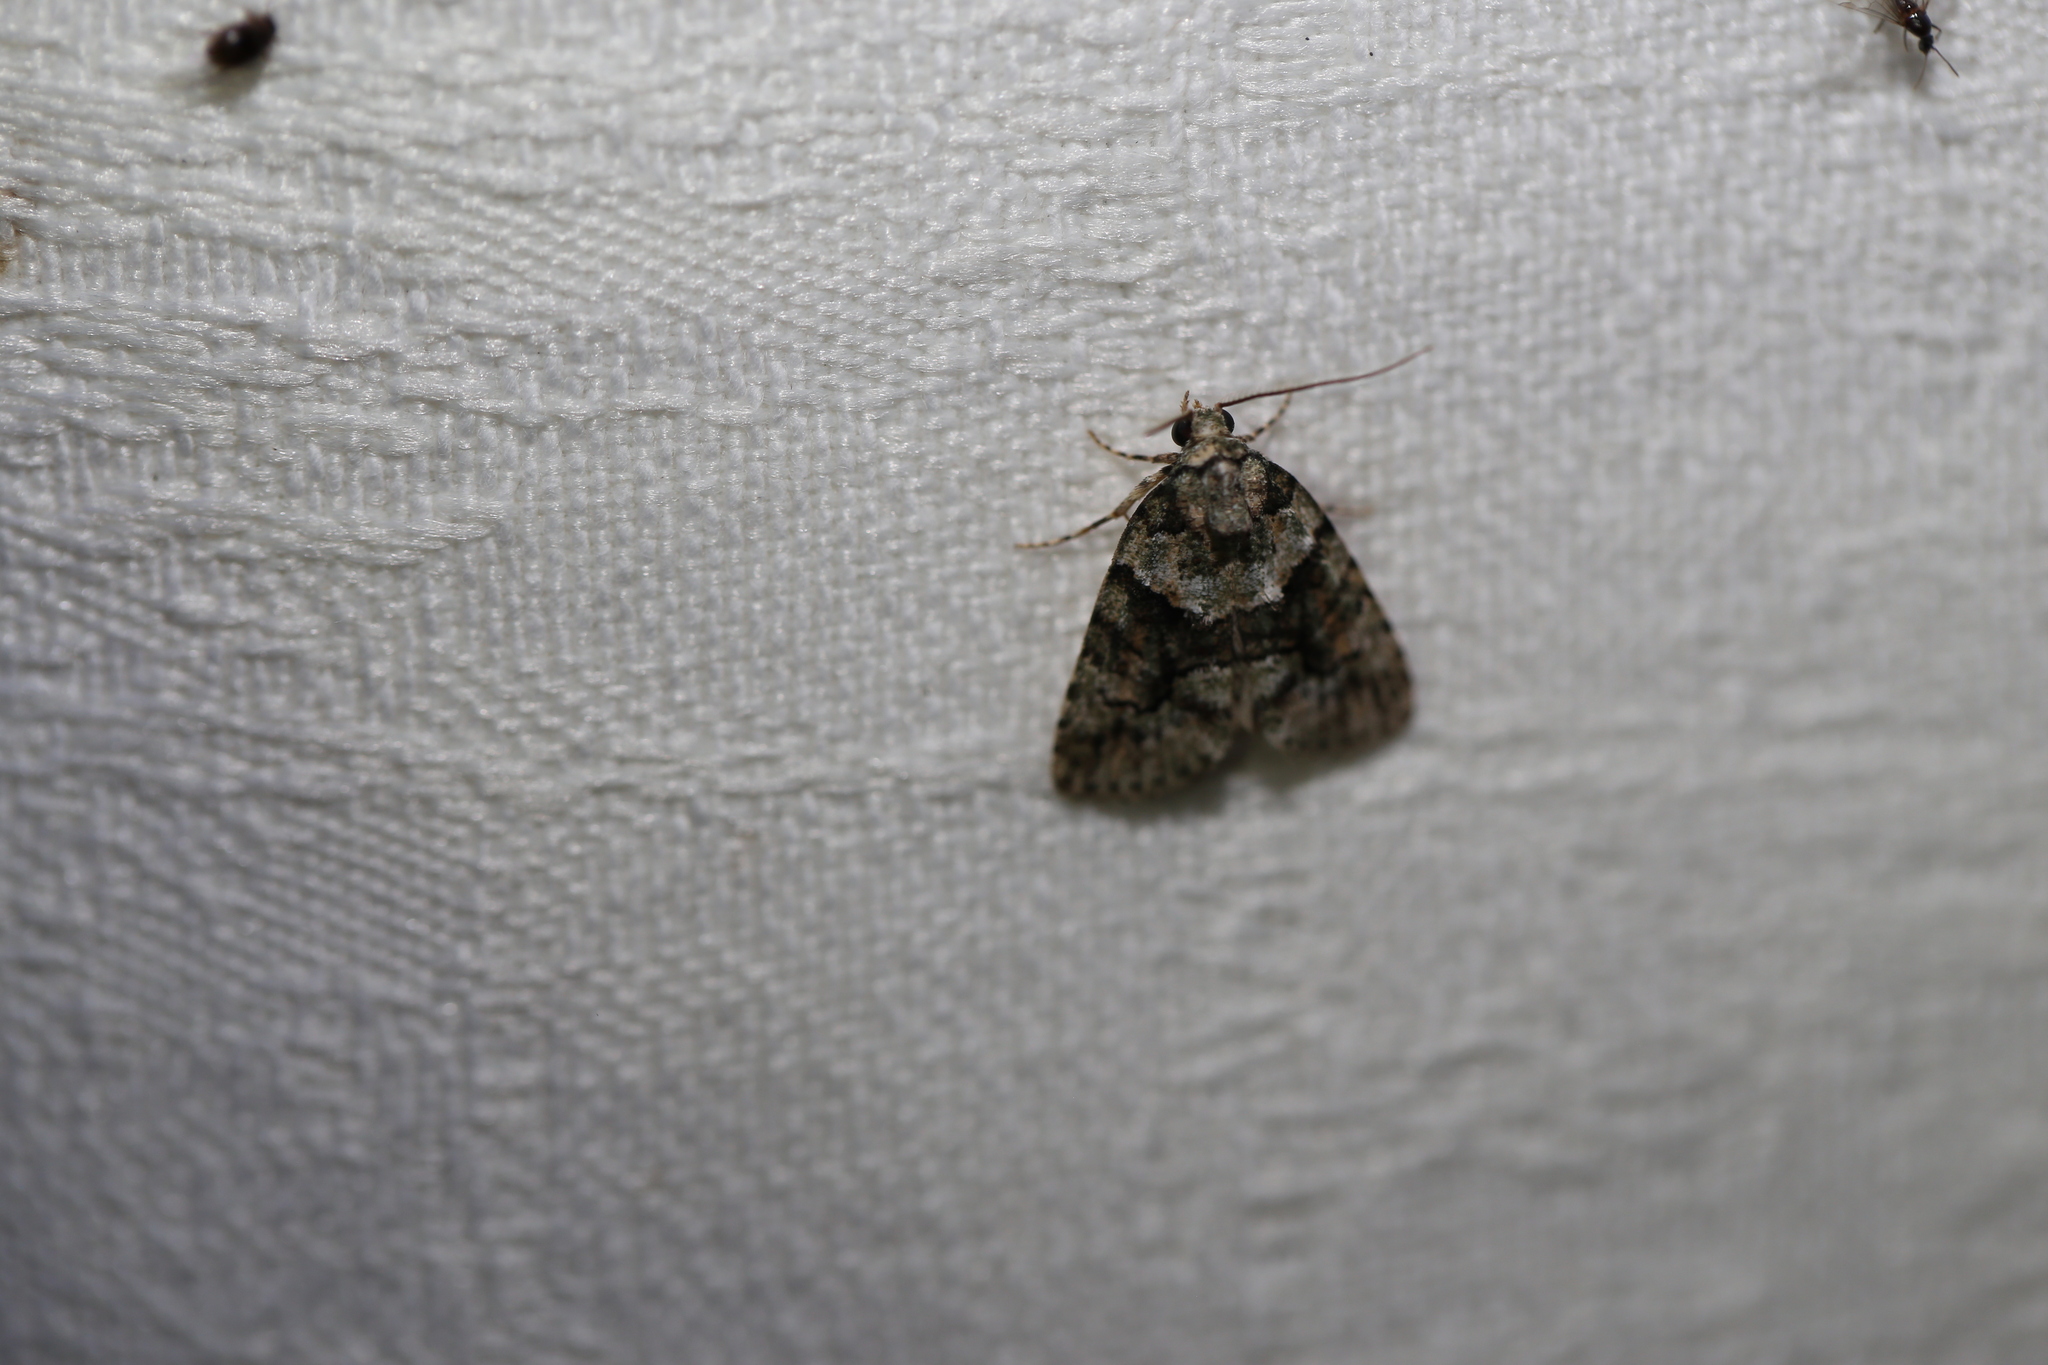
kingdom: Animalia
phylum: Arthropoda
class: Insecta
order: Lepidoptera
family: Geometridae
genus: Polyclysta
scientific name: Polyclysta hypogrammata
